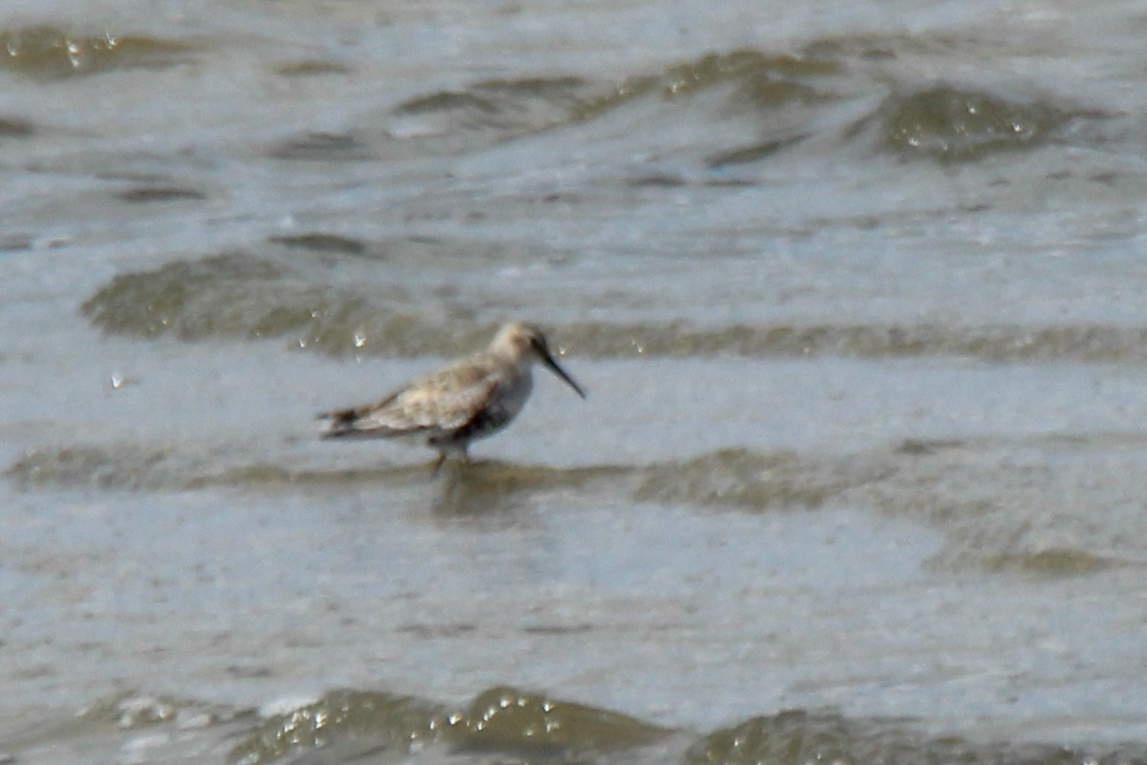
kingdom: Animalia
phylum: Chordata
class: Aves
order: Charadriiformes
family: Scolopacidae
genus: Calidris
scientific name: Calidris alpina
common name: Dunlin
